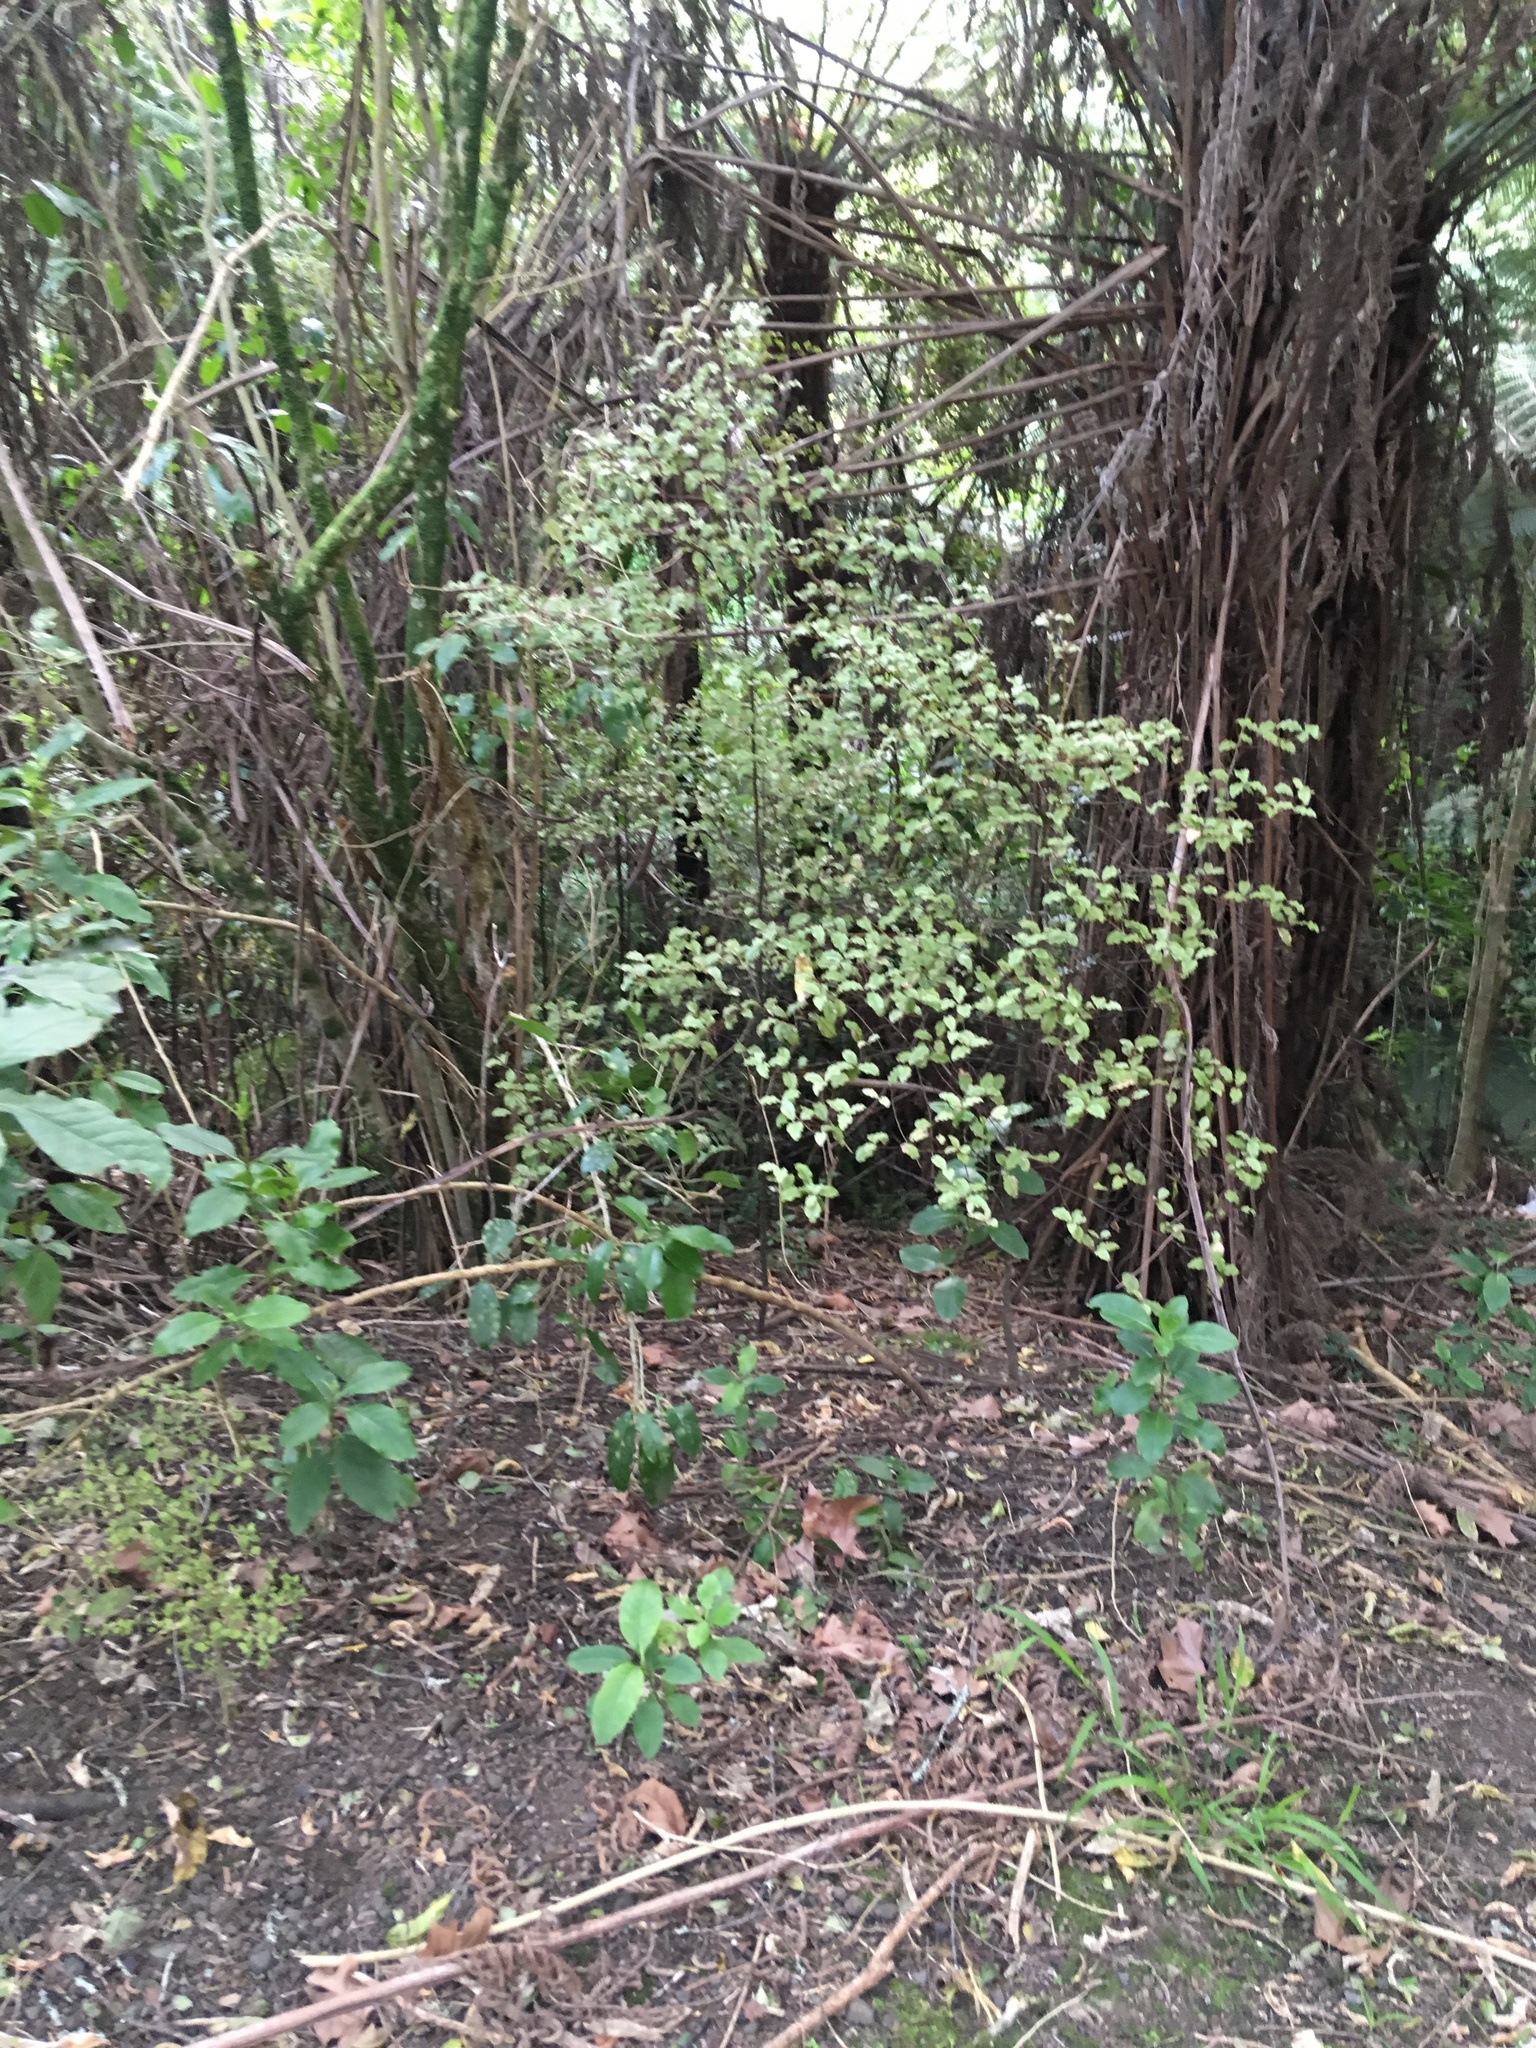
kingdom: Plantae
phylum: Tracheophyta
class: Magnoliopsida
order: Ericales
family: Primulaceae
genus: Myrsine
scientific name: Myrsine australis
